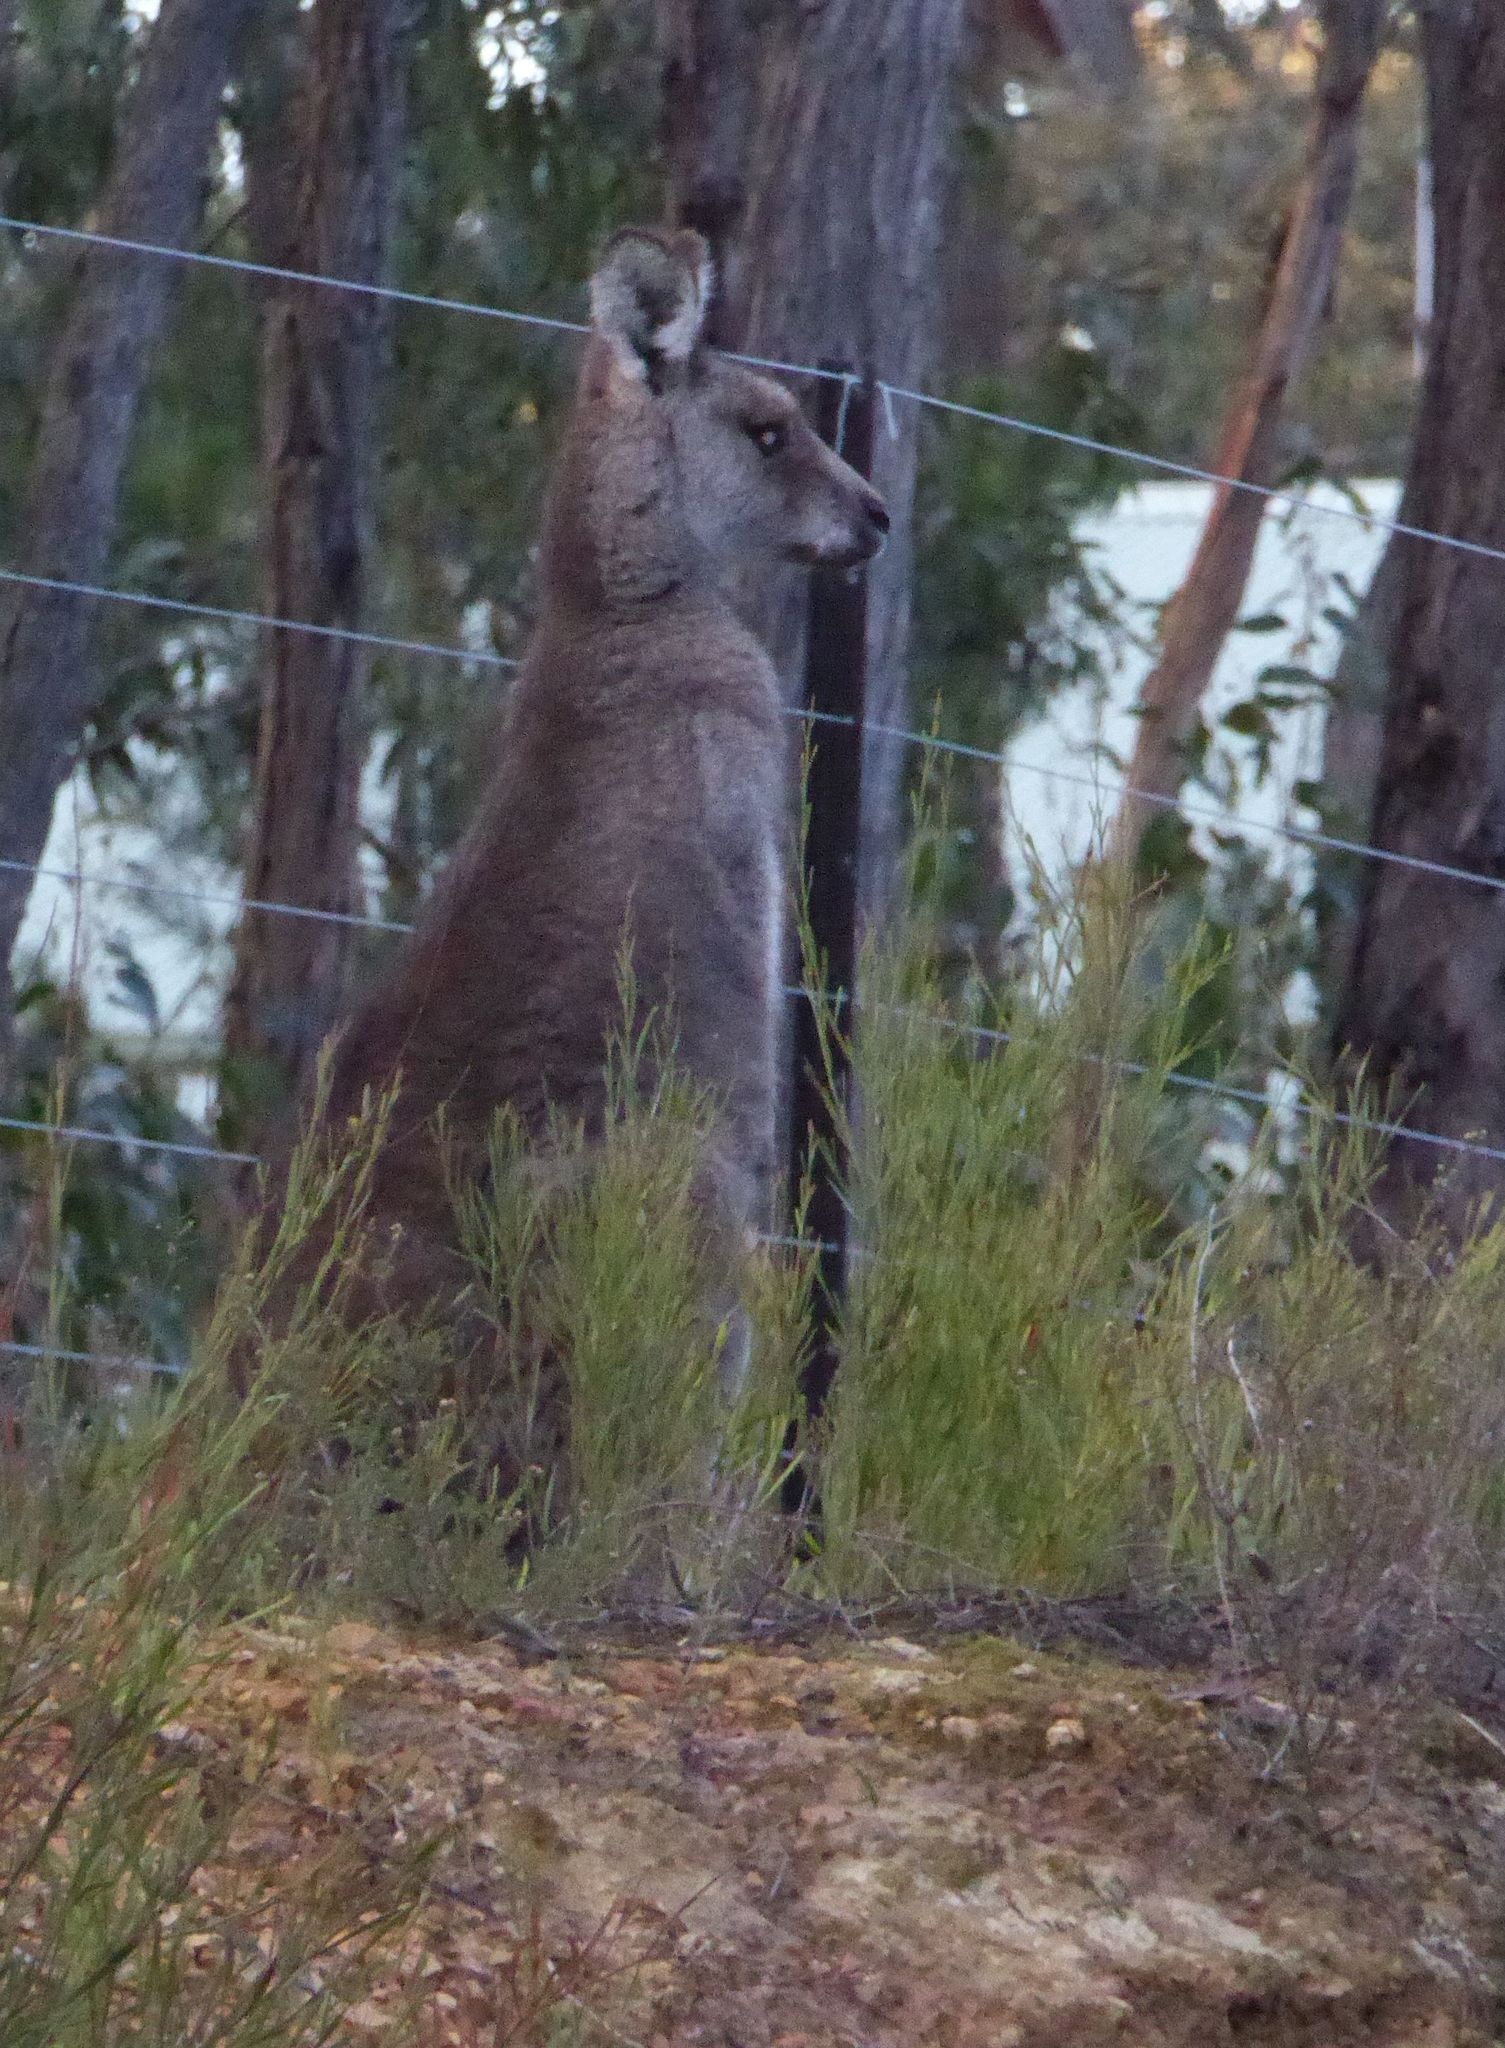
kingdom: Animalia
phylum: Chordata
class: Mammalia
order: Diprotodontia
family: Macropodidae
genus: Macropus
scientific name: Macropus giganteus
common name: Eastern grey kangaroo
